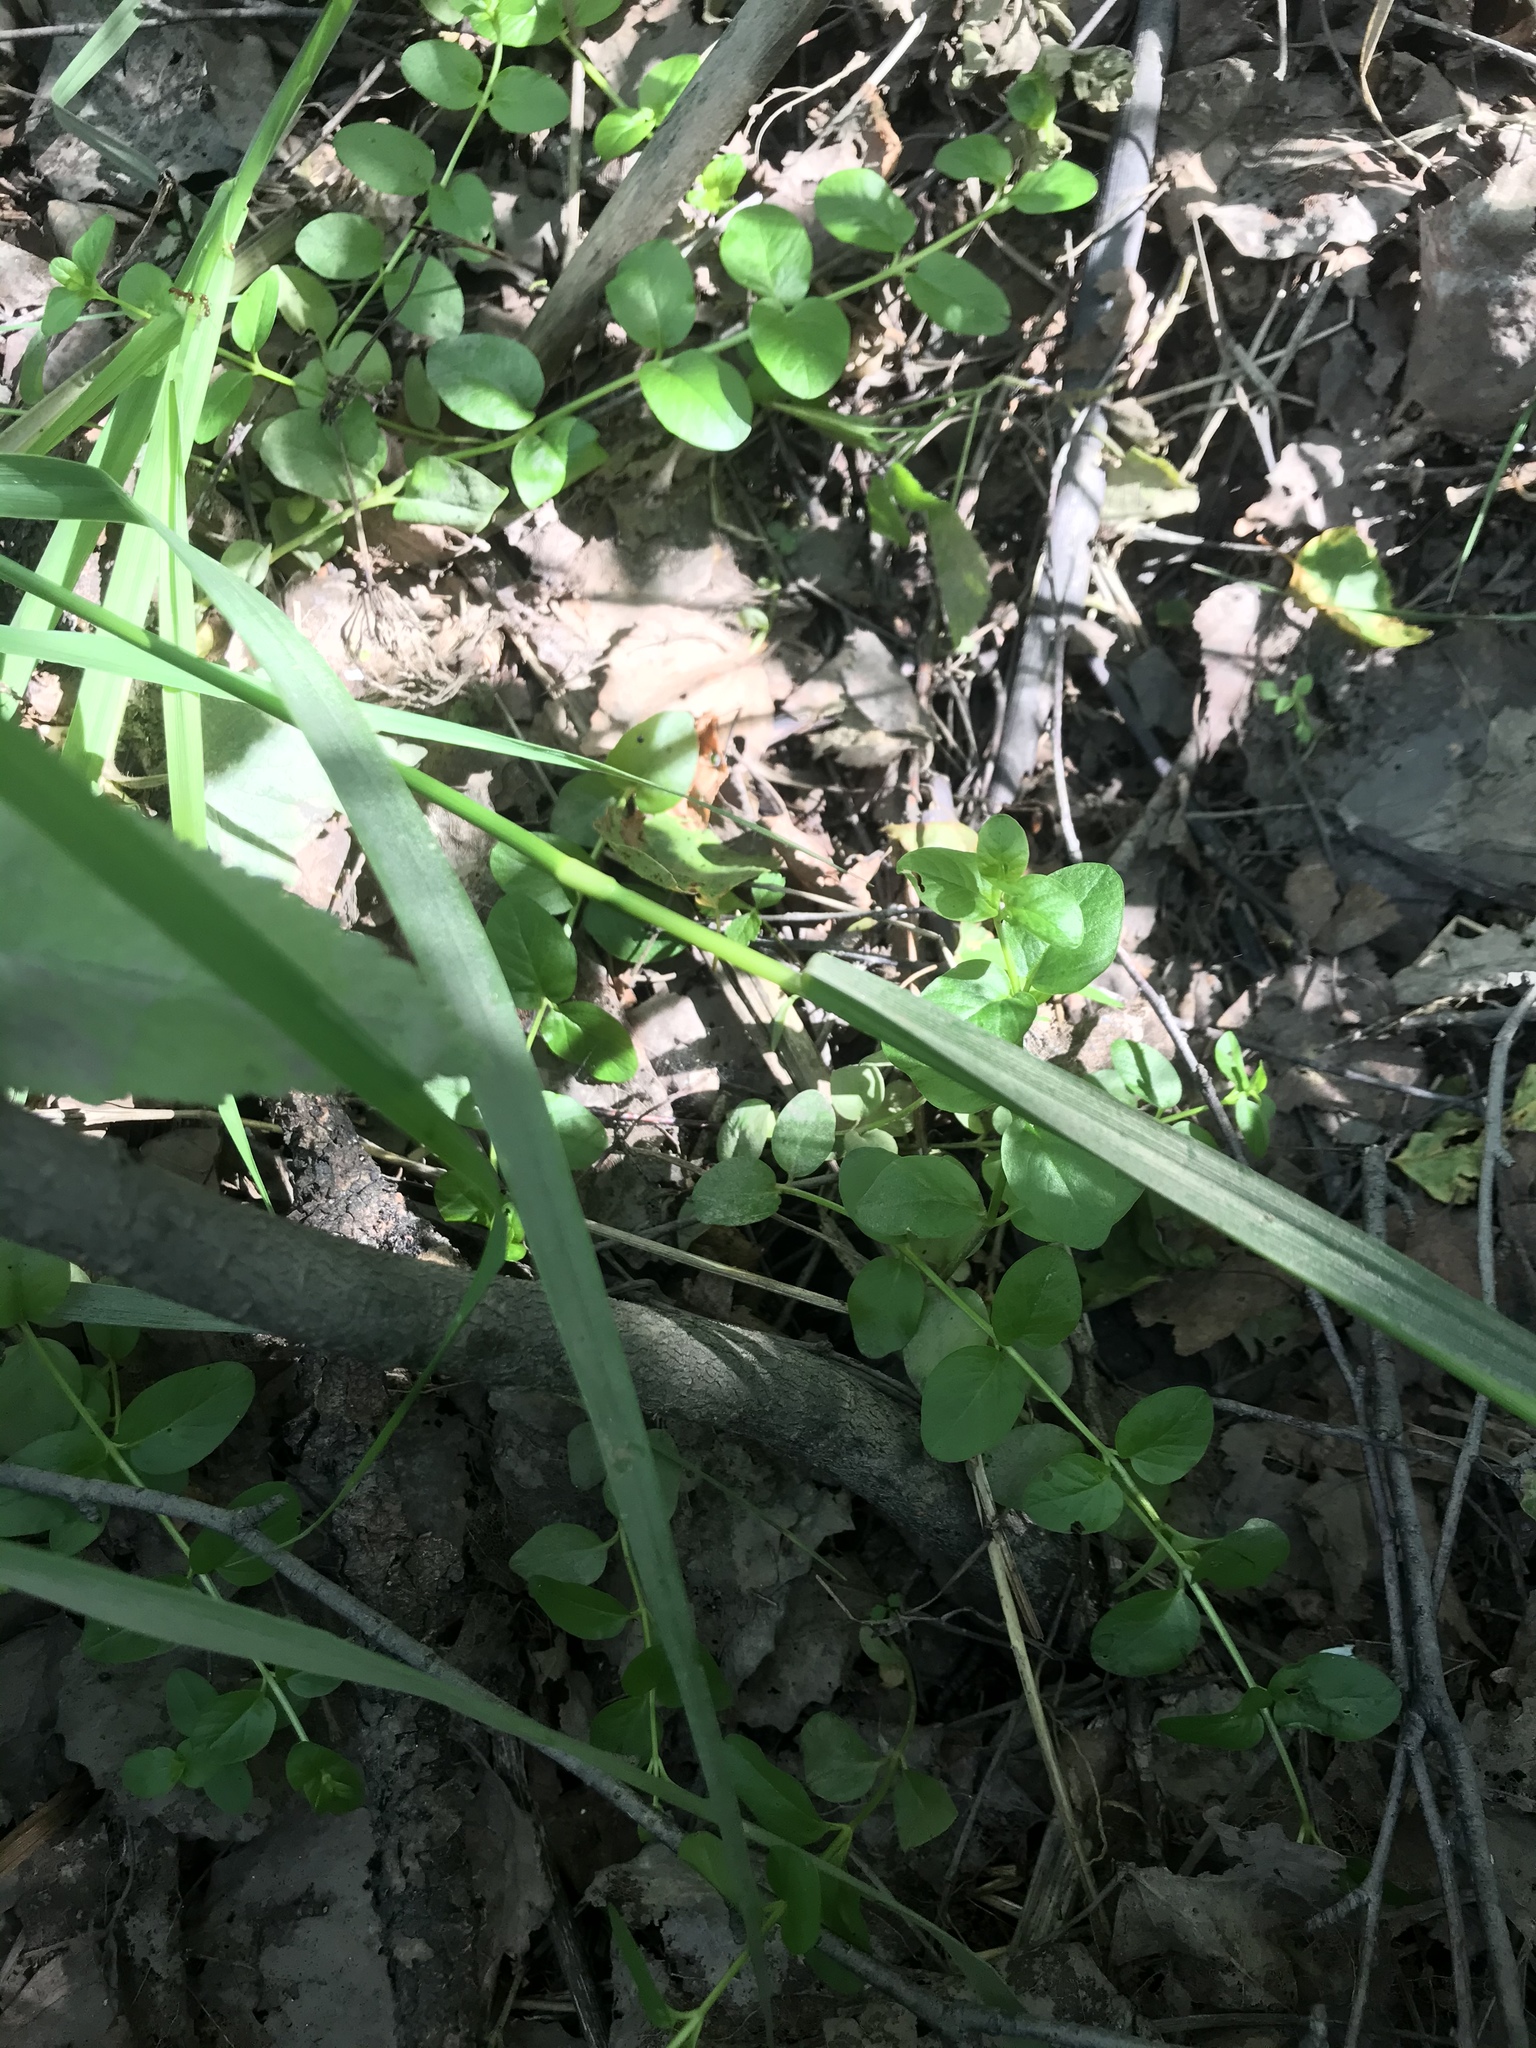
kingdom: Plantae
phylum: Tracheophyta
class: Magnoliopsida
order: Rosales
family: Rosaceae
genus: Prunus
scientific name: Prunus padus
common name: Bird cherry
